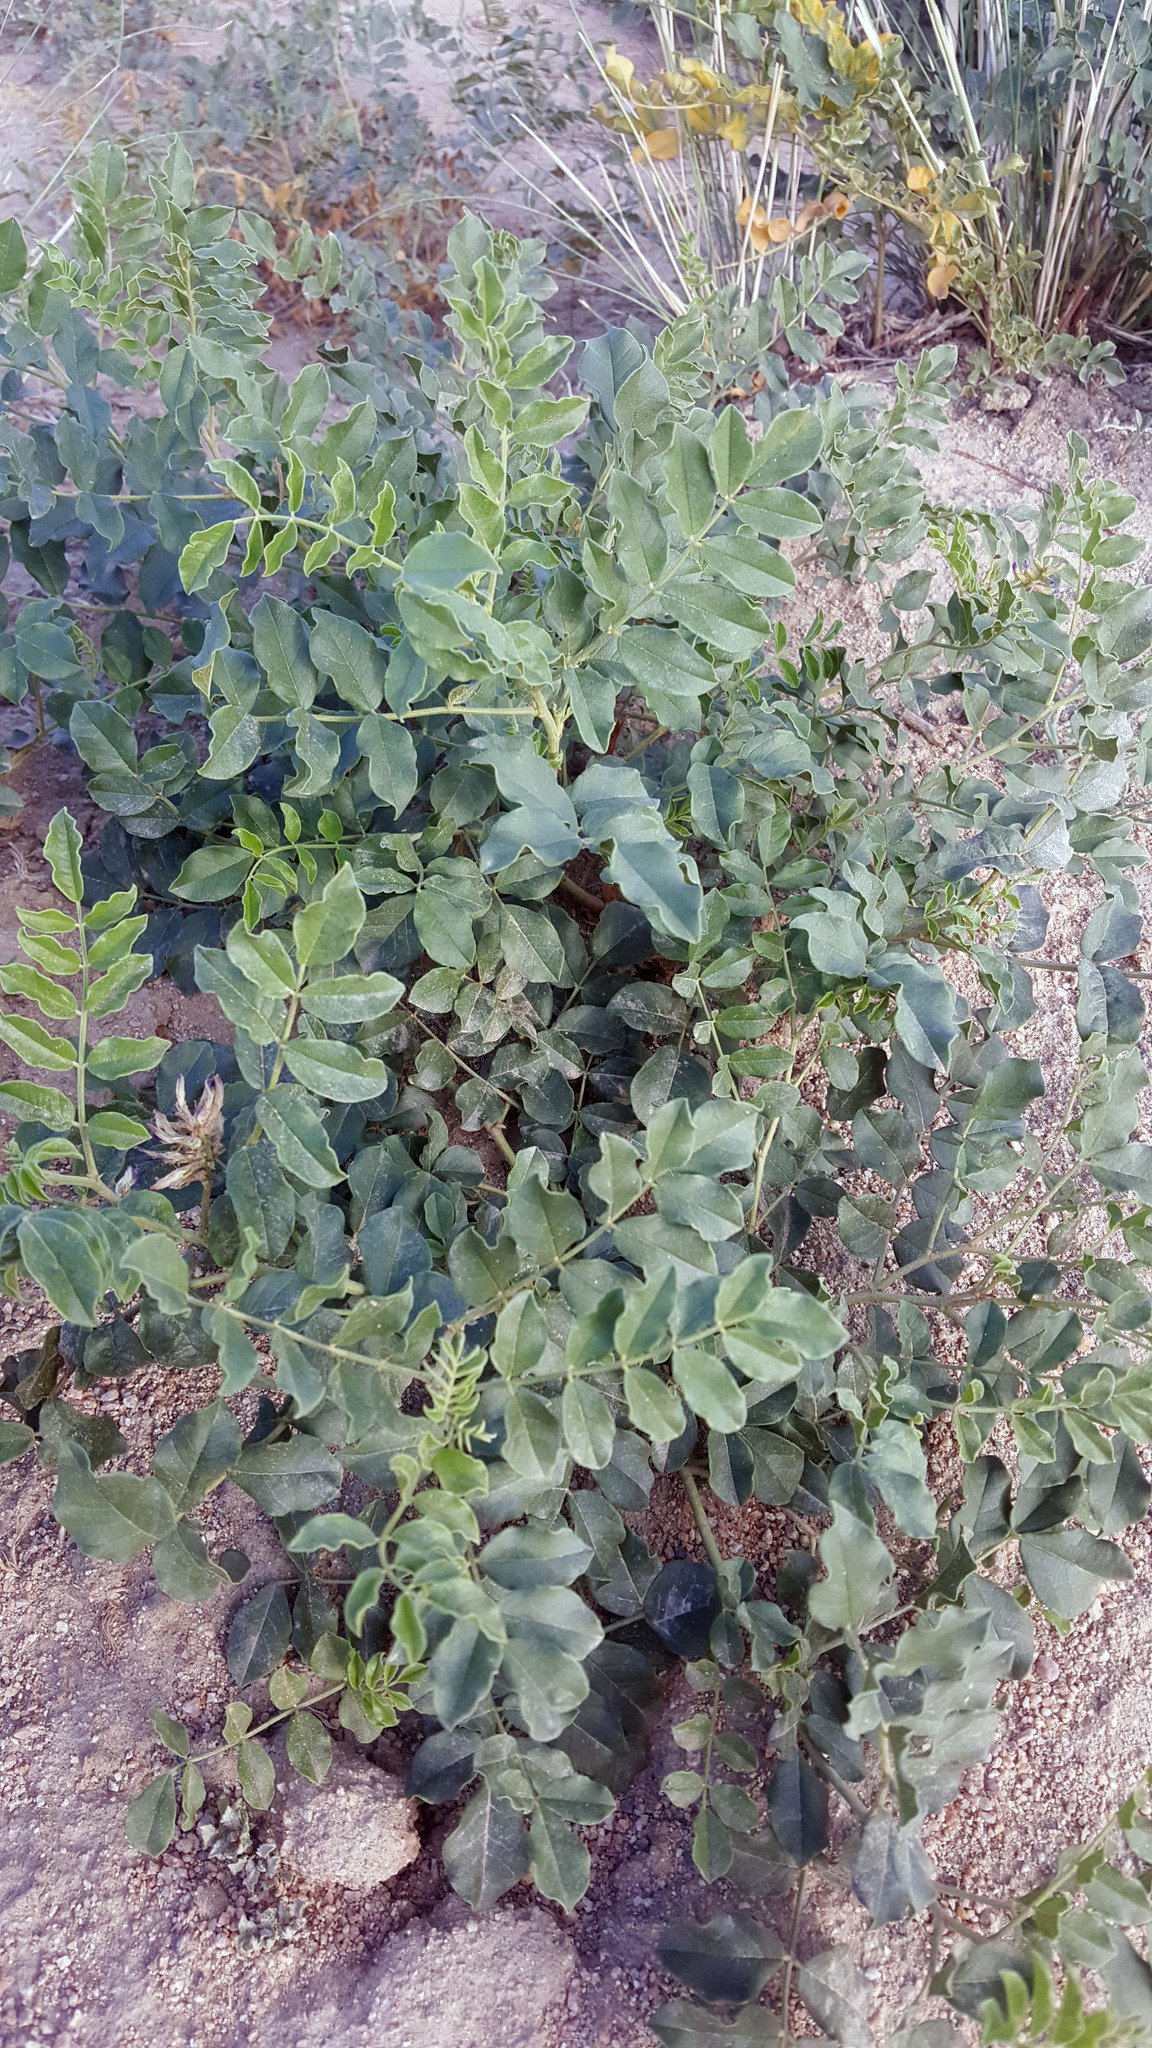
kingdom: Plantae
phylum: Tracheophyta
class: Magnoliopsida
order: Fabales
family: Fabaceae
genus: Glycyrrhiza
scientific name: Glycyrrhiza inflata
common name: Chinese licorice
